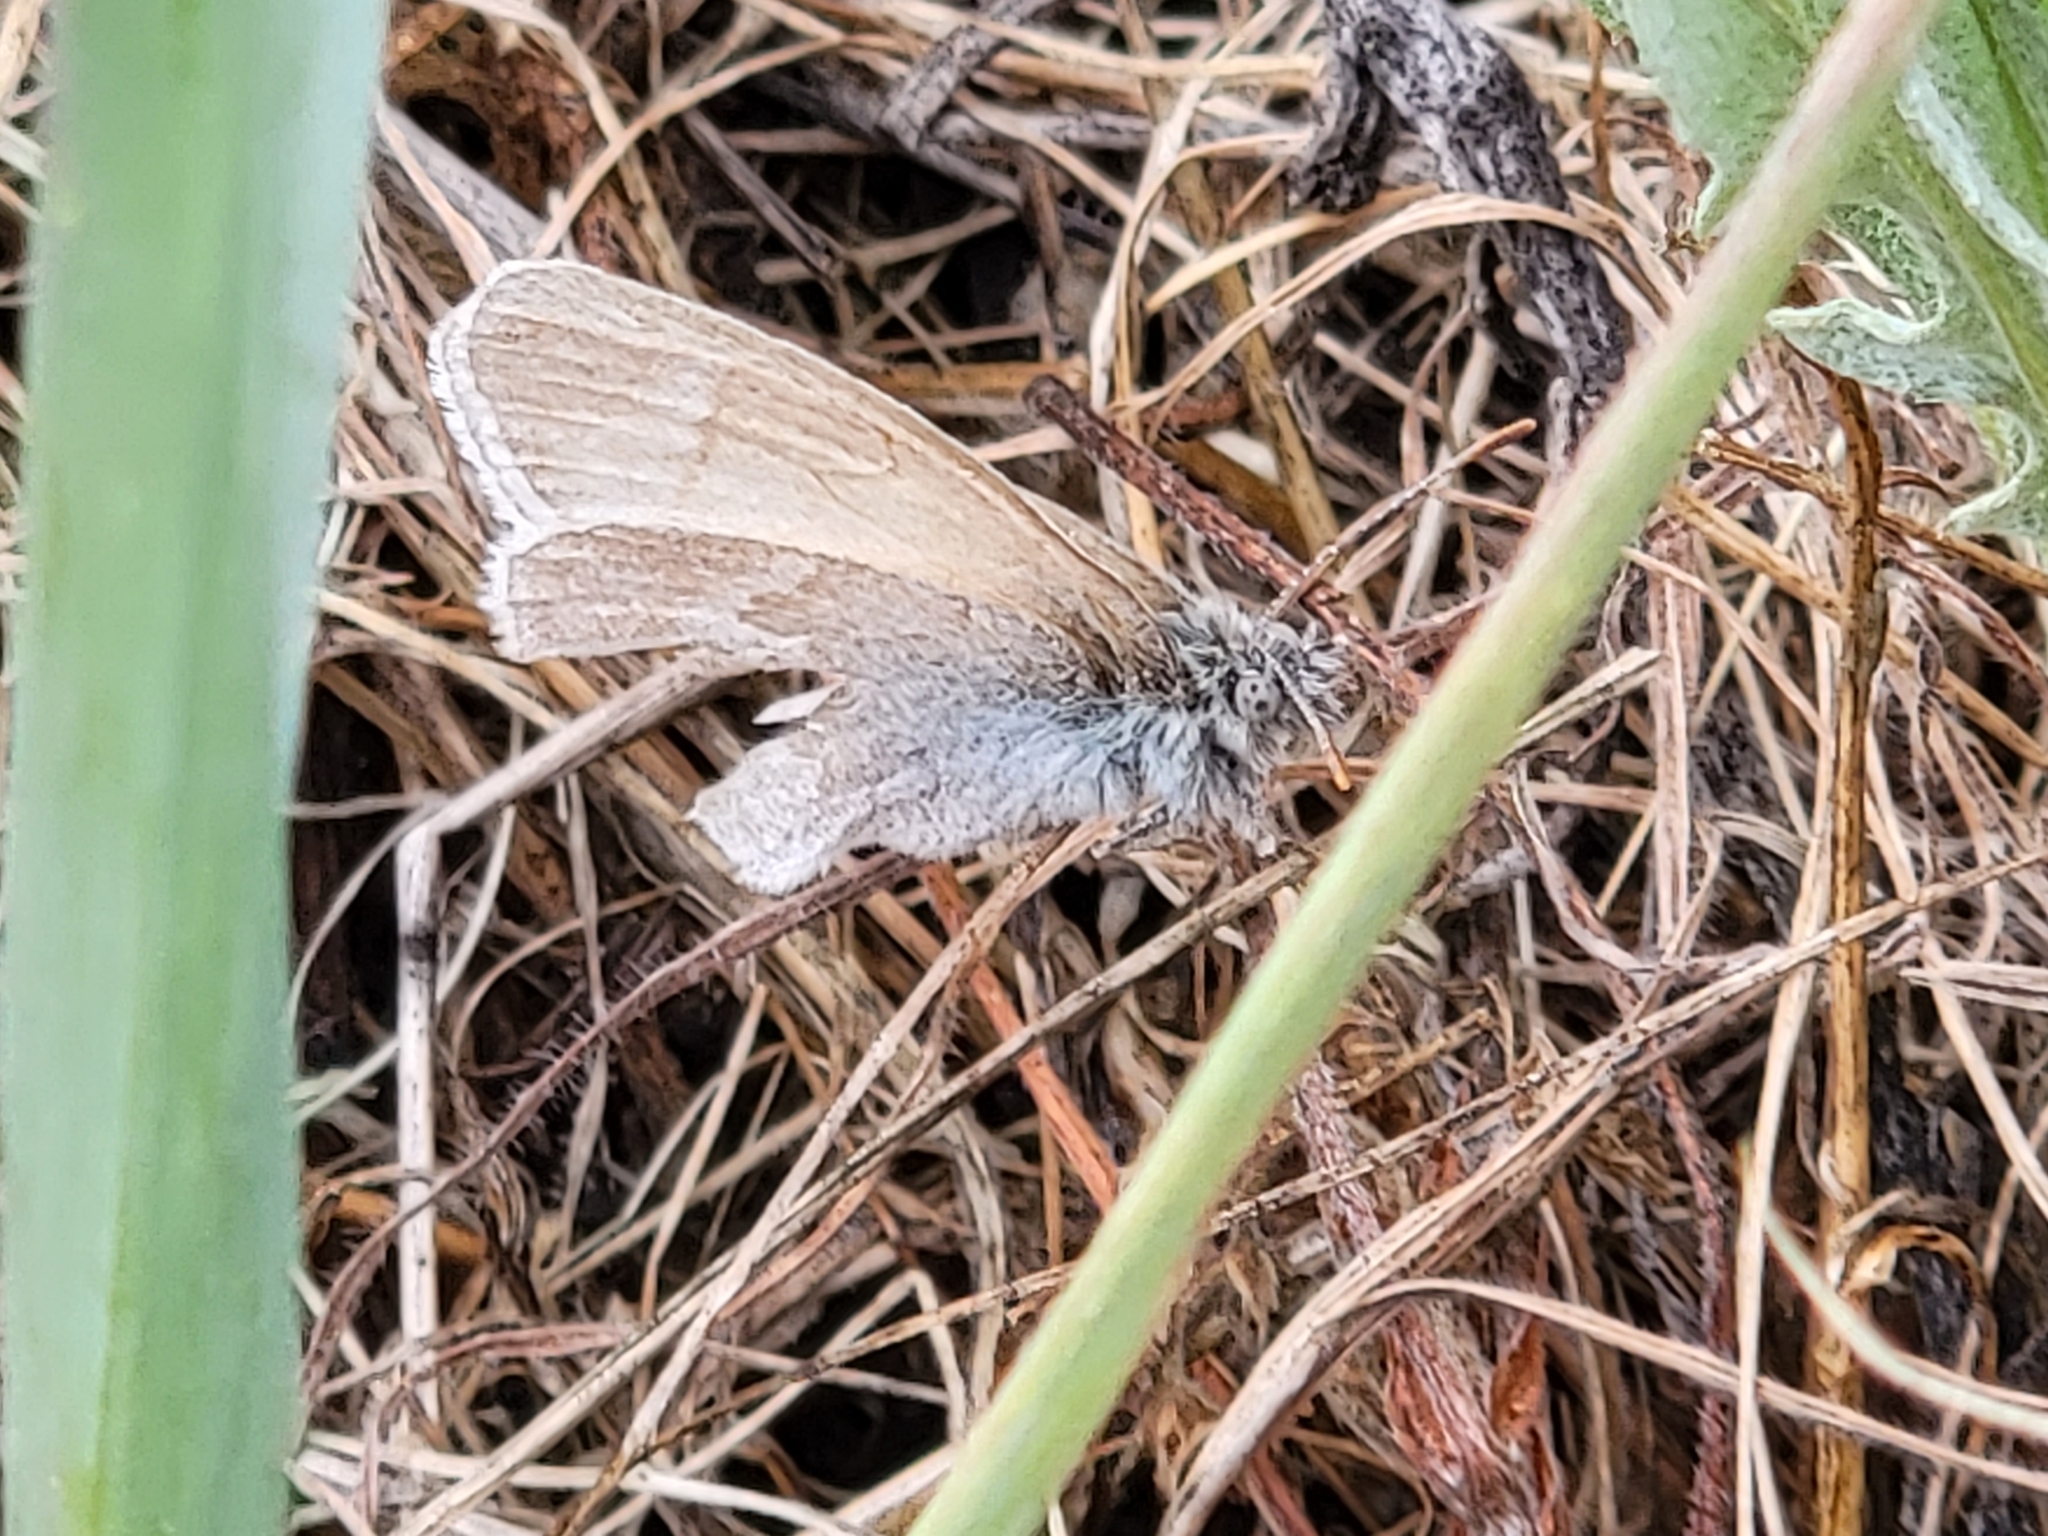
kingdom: Animalia
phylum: Arthropoda
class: Insecta
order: Lepidoptera
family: Nymphalidae
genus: Coenonympha
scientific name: Coenonympha california
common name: Common ringlet
